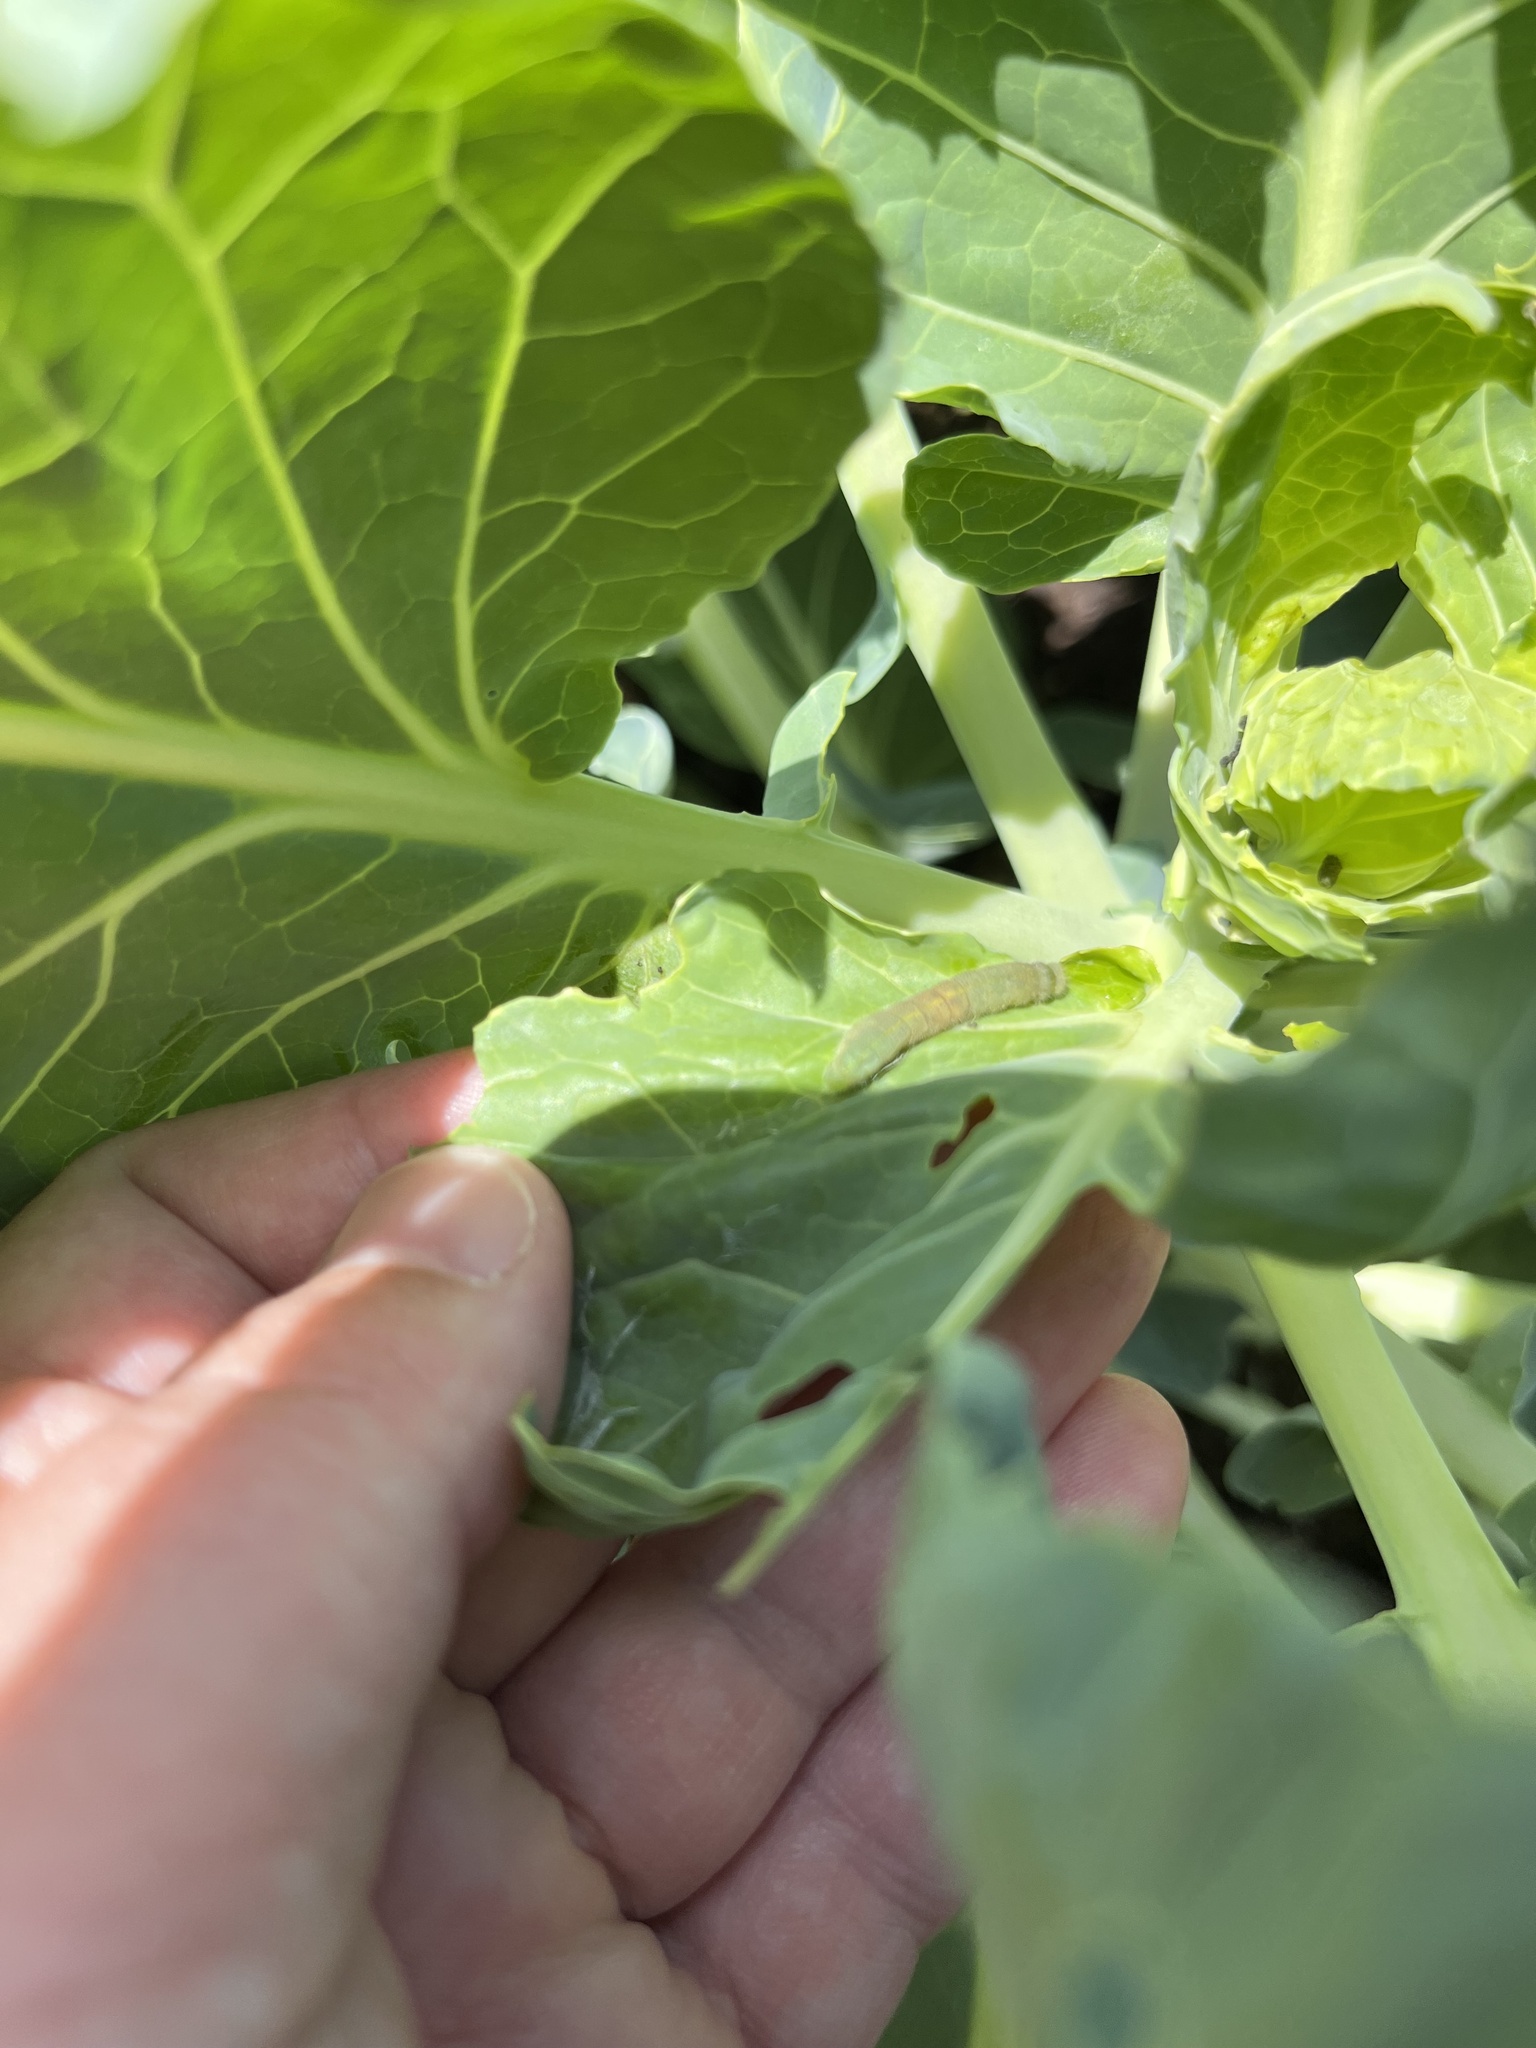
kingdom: Animalia
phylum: Arthropoda
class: Insecta
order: Lepidoptera
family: Pieridae
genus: Pieris
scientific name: Pieris rapae
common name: Small white
